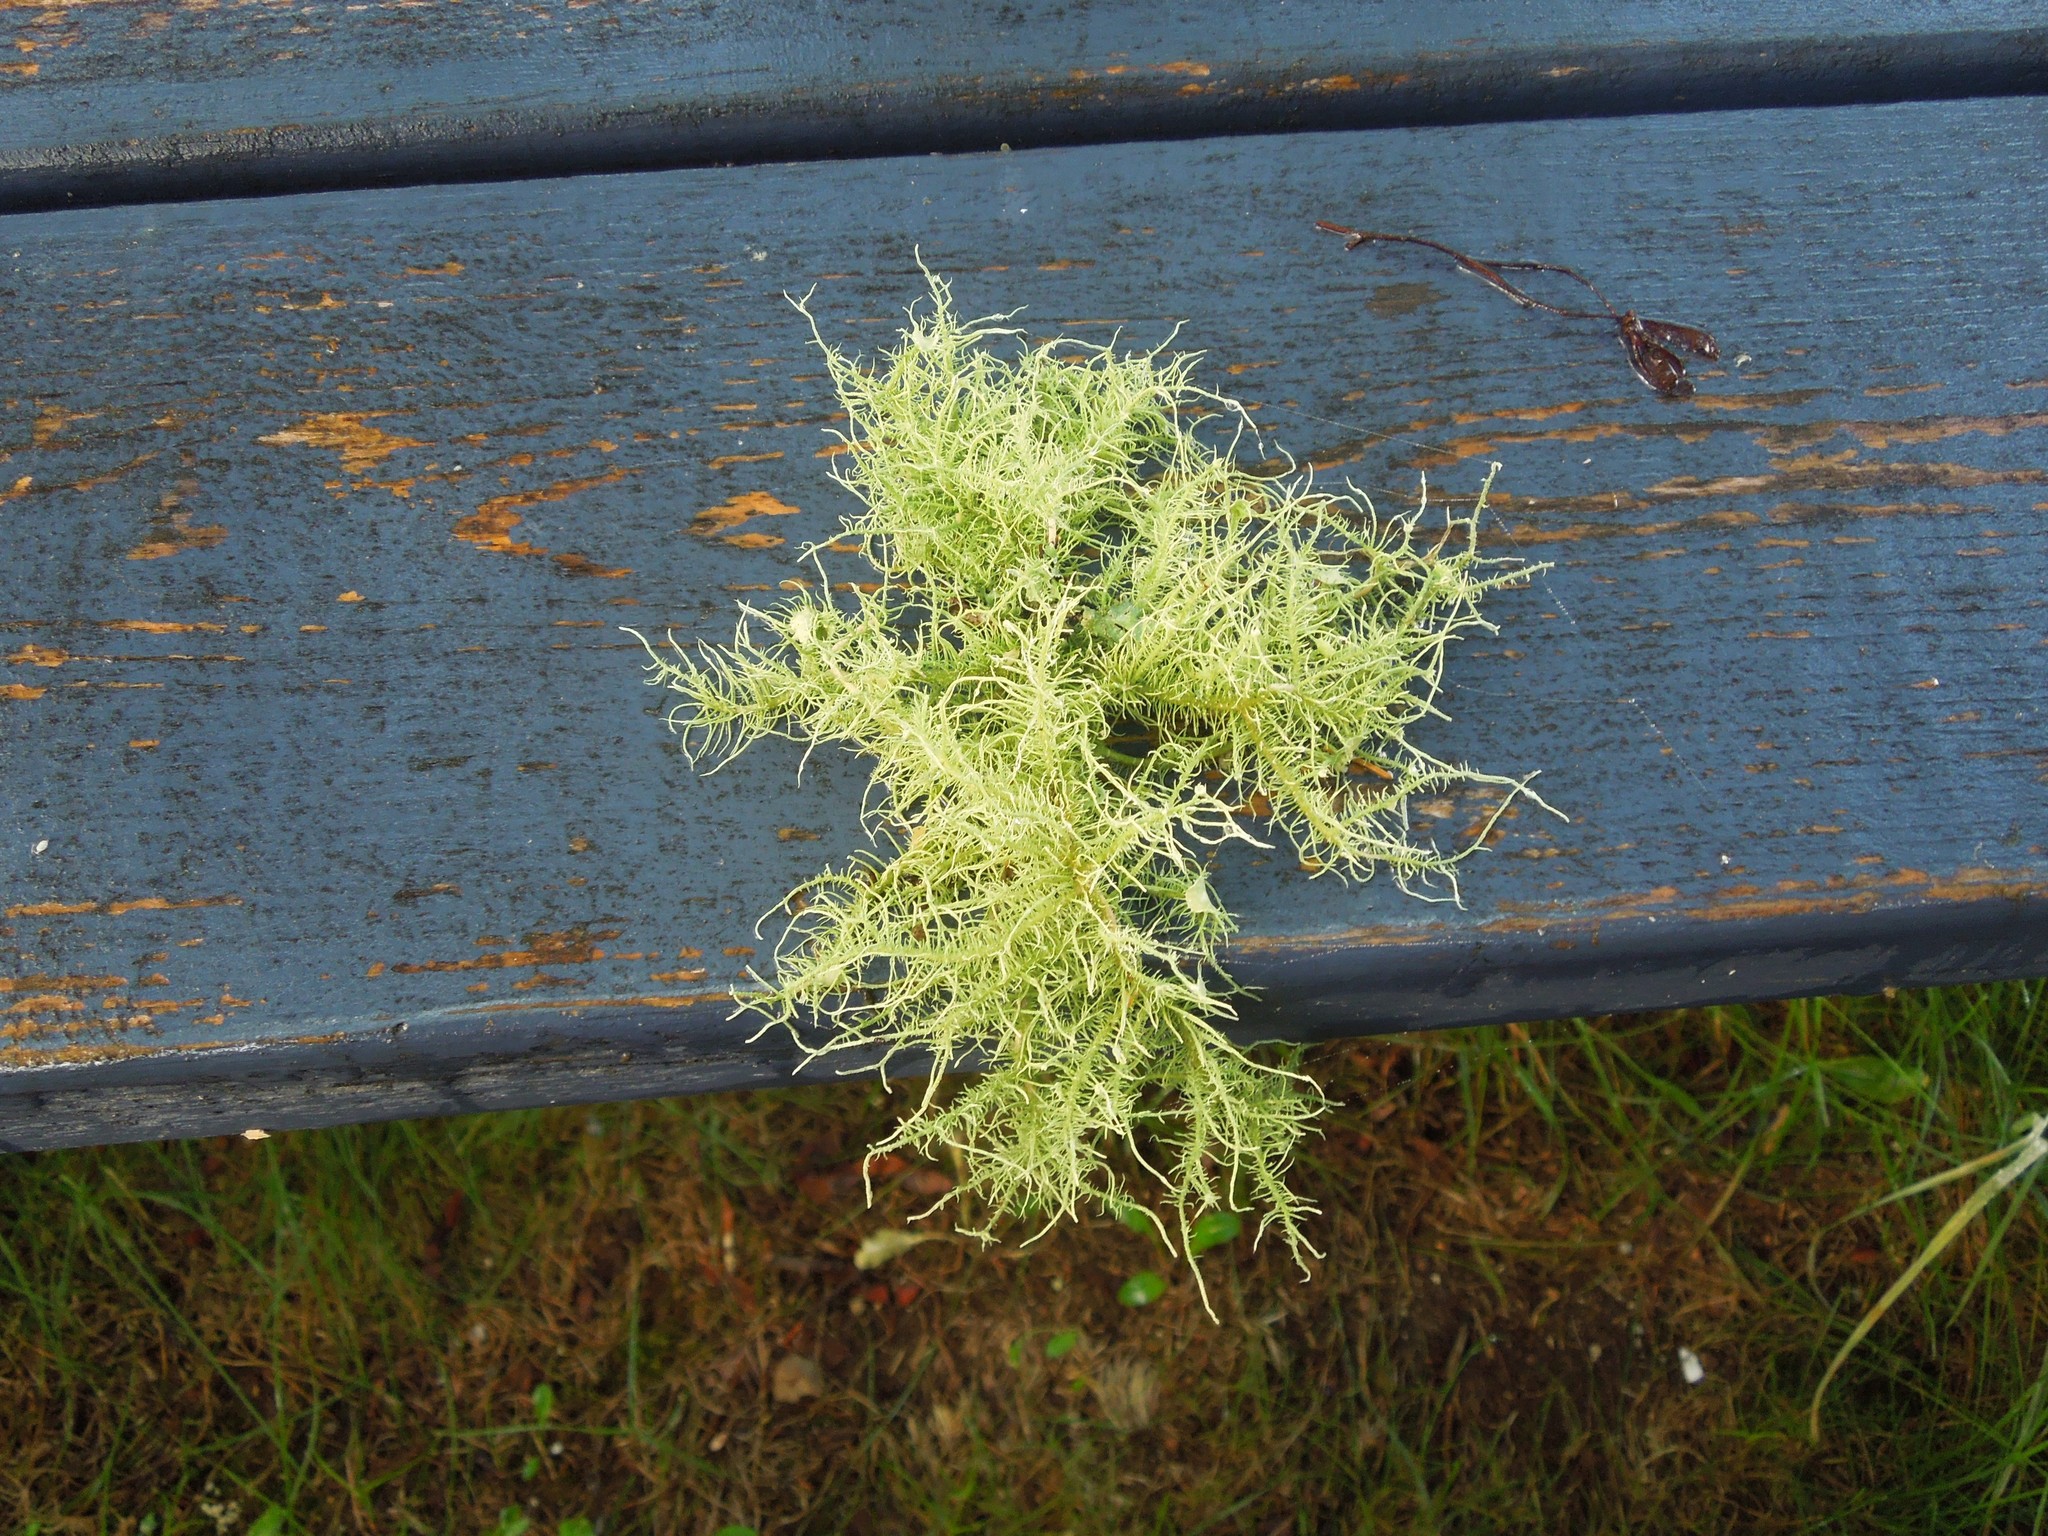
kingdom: Fungi
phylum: Ascomycota
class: Lecanoromycetes
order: Lecanorales
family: Parmeliaceae
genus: Usnea
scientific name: Usnea strigosa
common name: Bushy beard lichen
